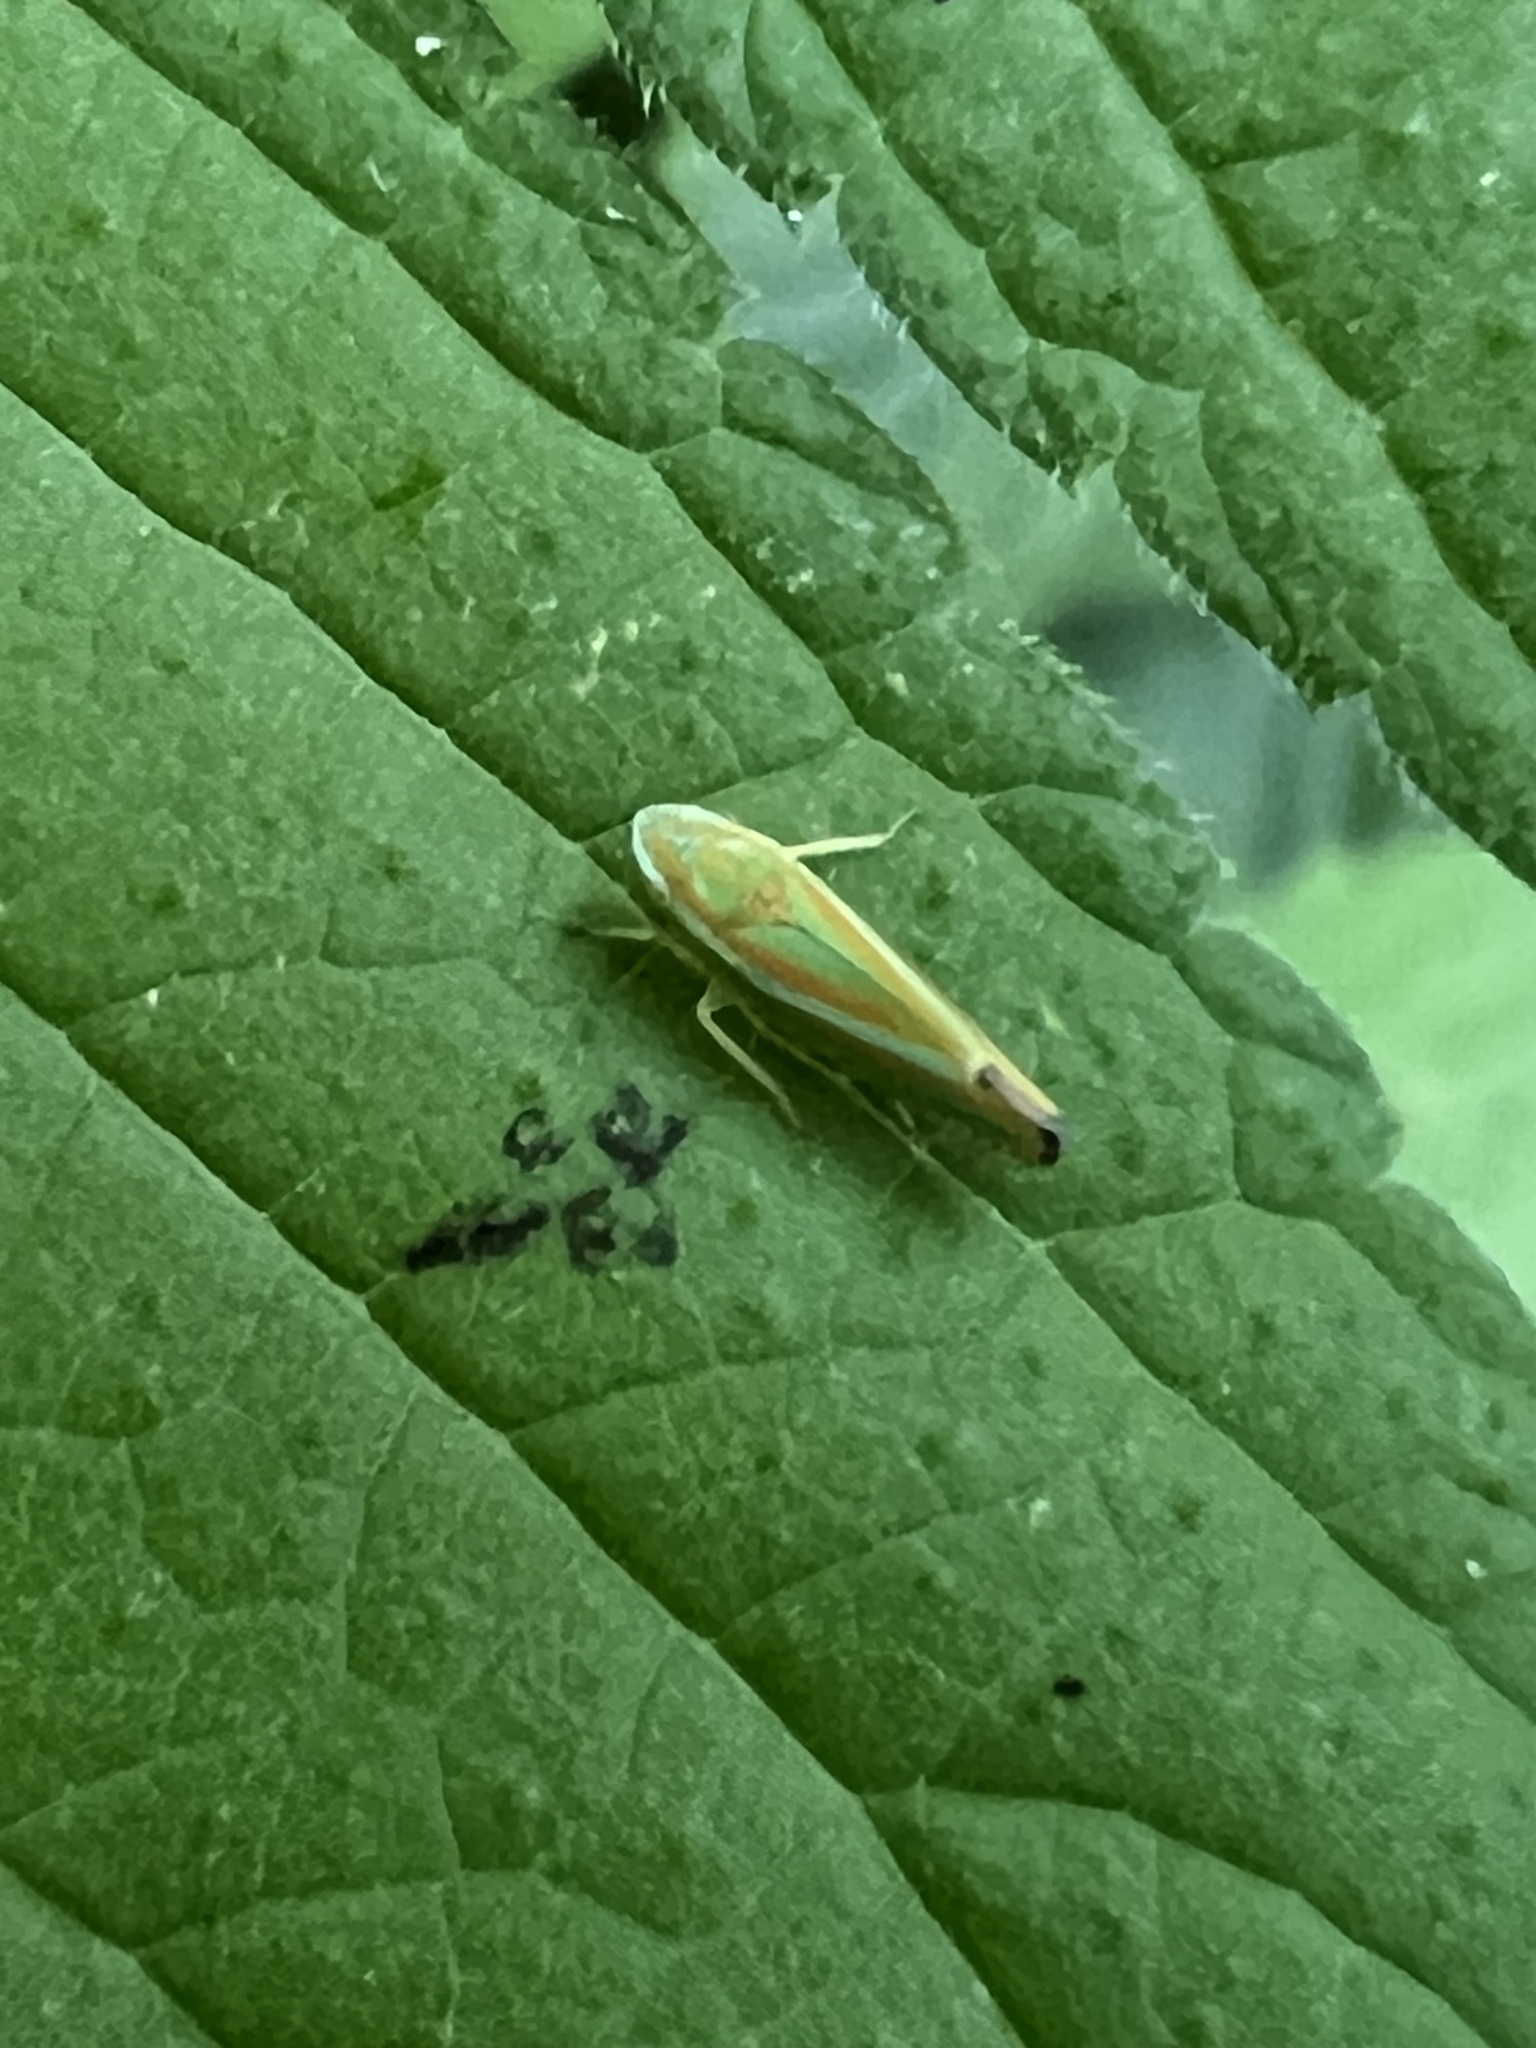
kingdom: Animalia
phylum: Arthropoda
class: Insecta
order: Hemiptera
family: Cicadellidae
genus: Graphocephala
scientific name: Graphocephala versuta
